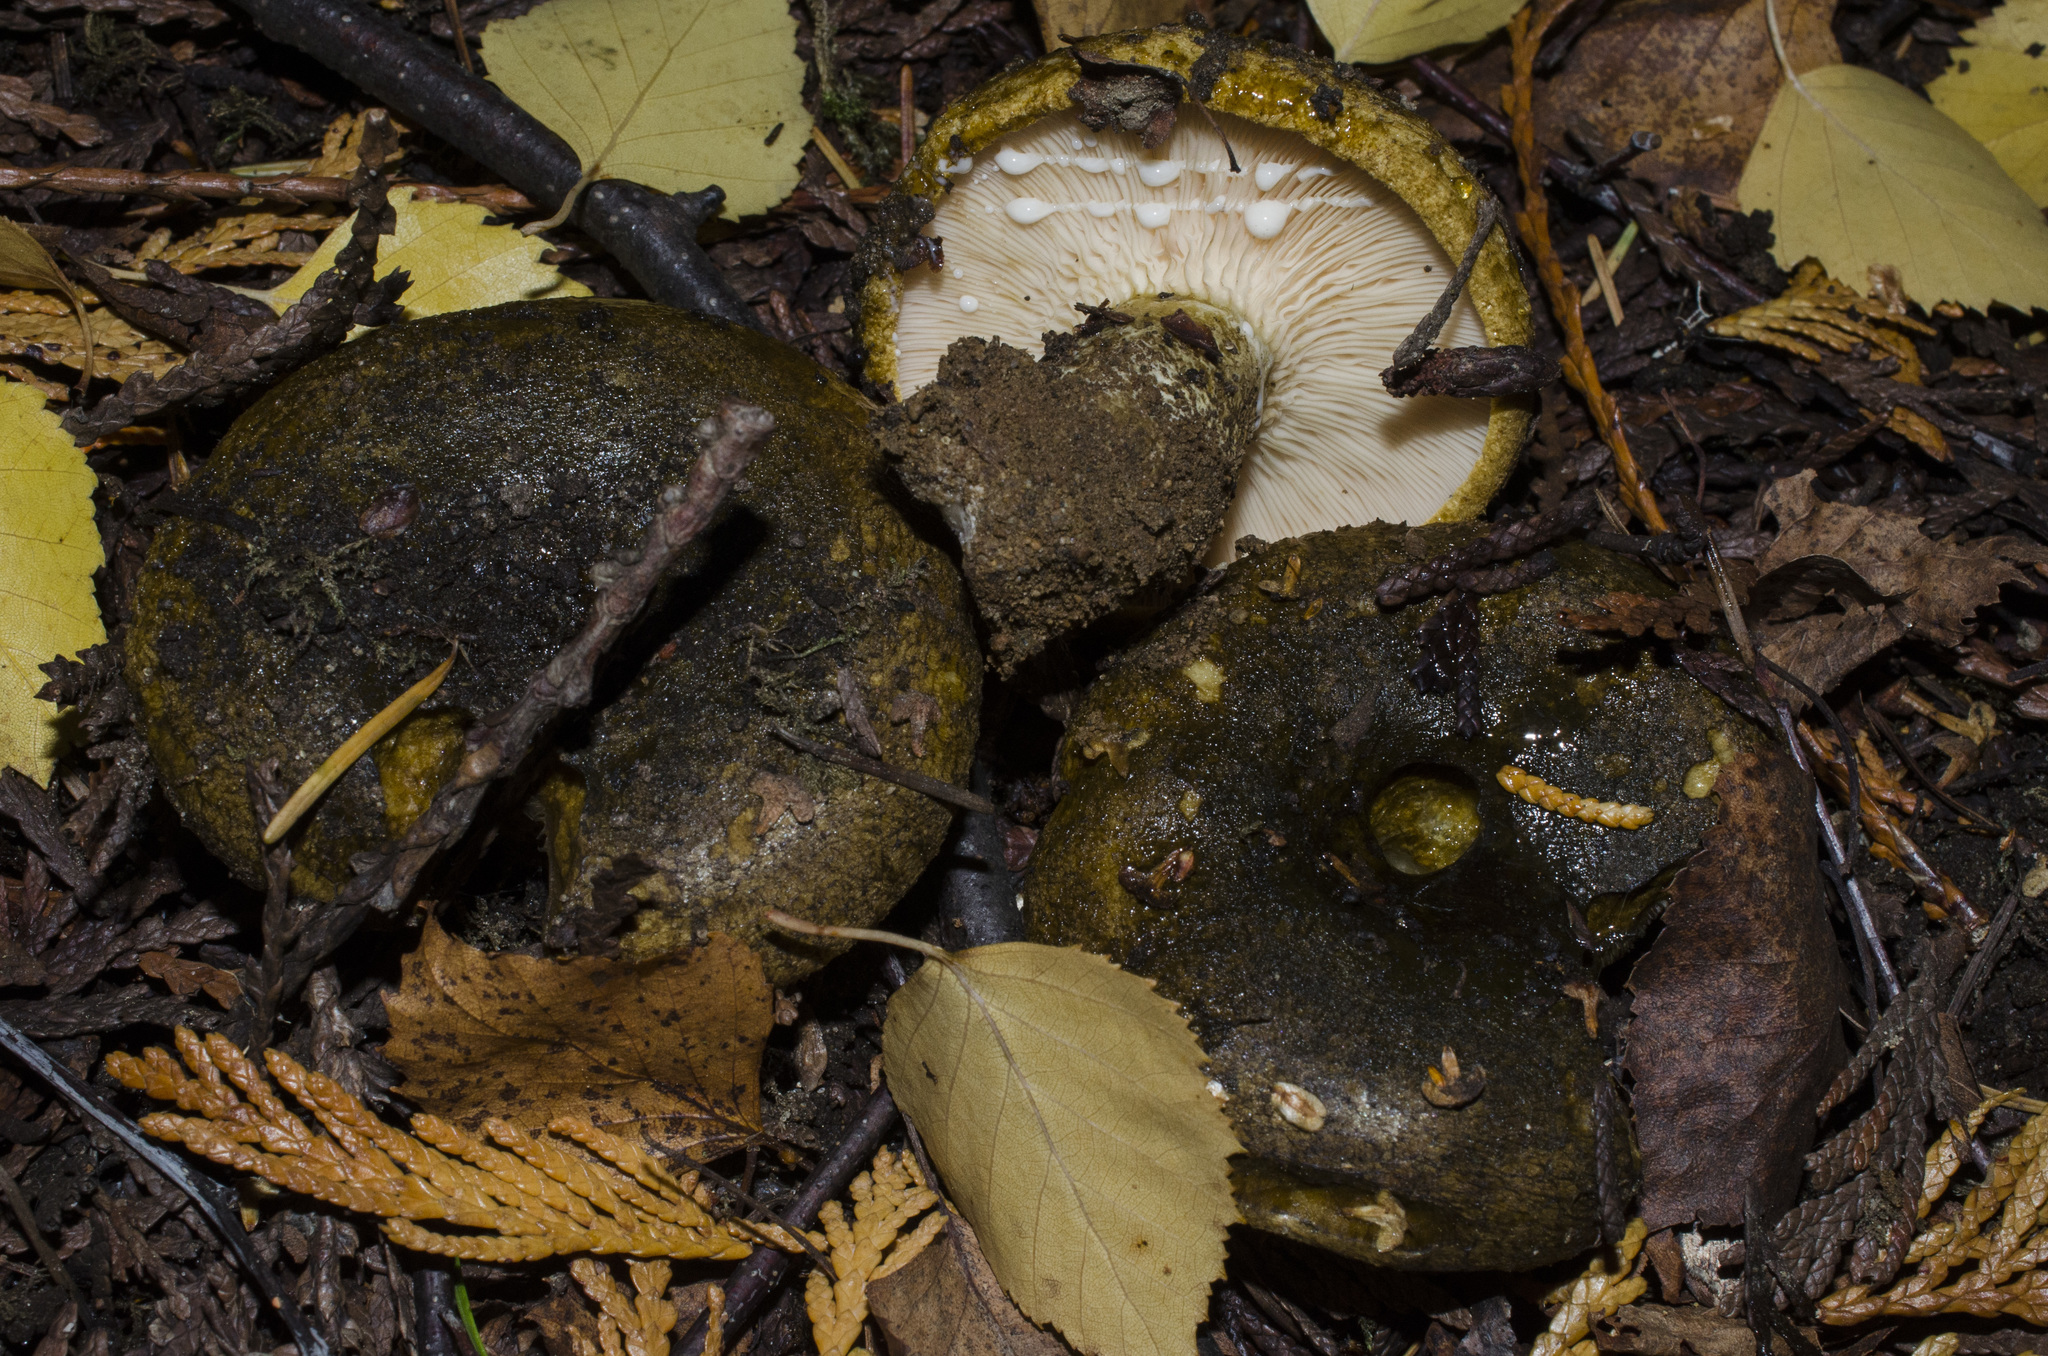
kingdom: Fungi
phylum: Basidiomycota
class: Agaricomycetes
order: Russulales
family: Russulaceae
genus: Lactarius
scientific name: Lactarius turpis
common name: Ugly milk-cap
